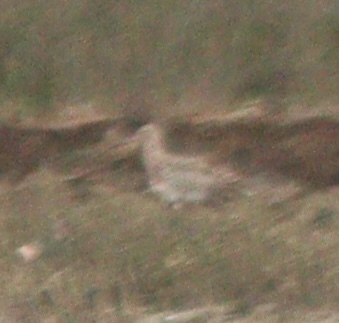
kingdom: Animalia
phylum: Chordata
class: Aves
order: Charadriiformes
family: Scolopacidae
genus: Numenius
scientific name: Numenius arquata
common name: Eurasian curlew
